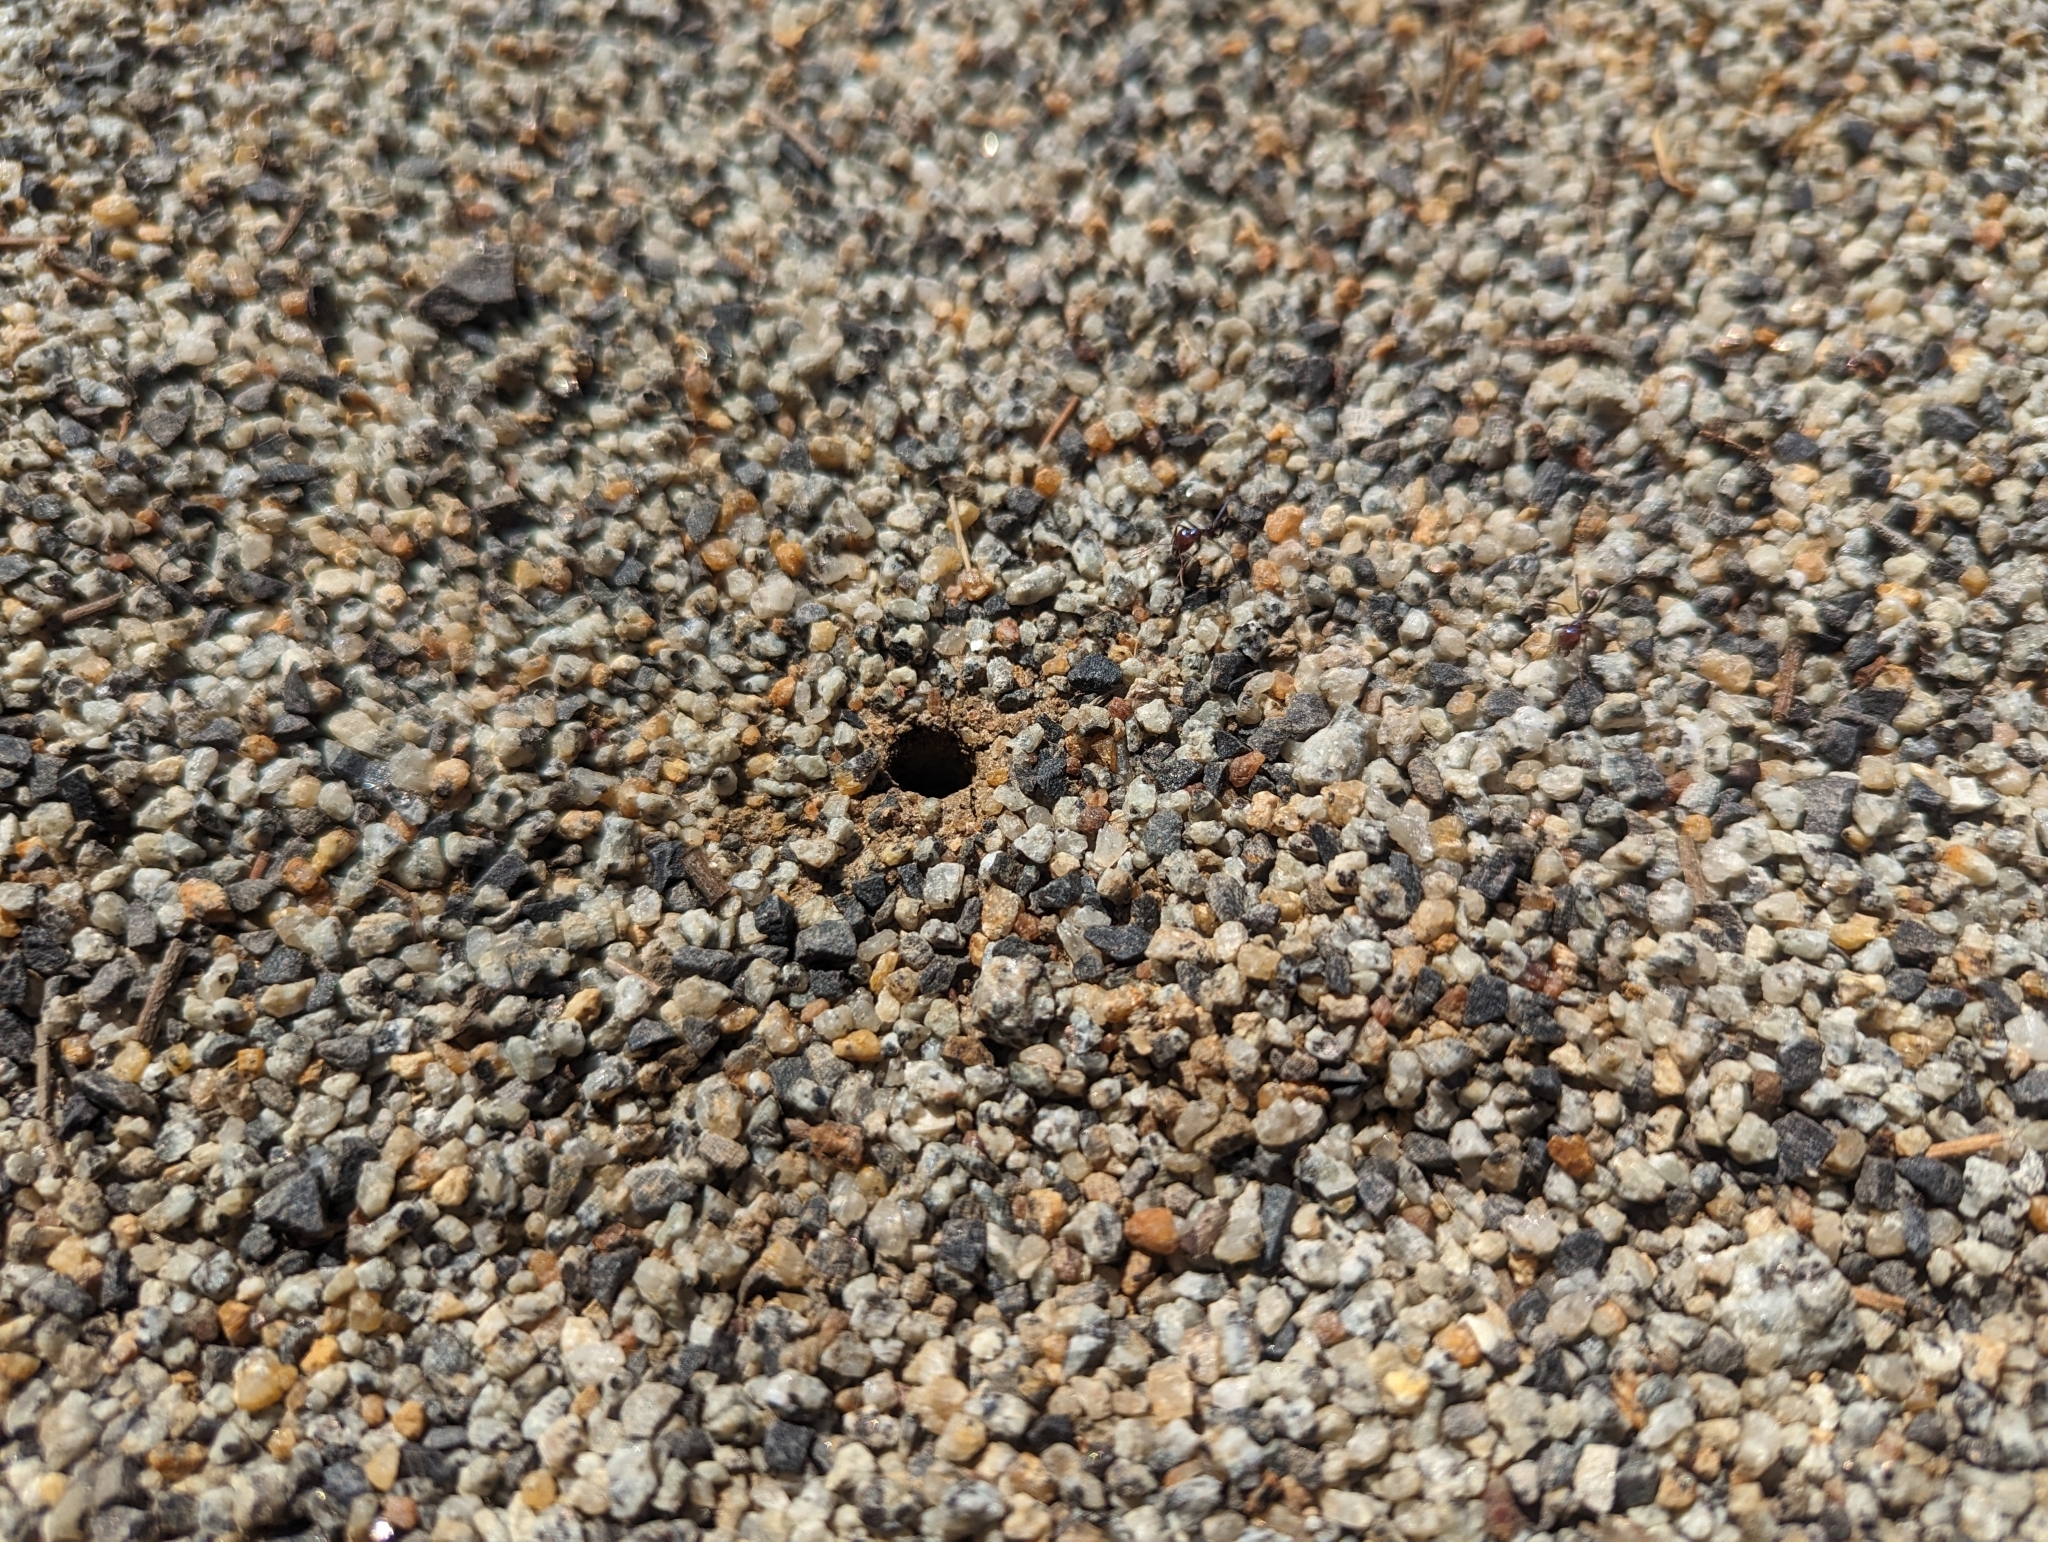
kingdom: Animalia
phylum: Arthropoda
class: Insecta
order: Hymenoptera
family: Formicidae
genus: Iridomyrmex
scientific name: Iridomyrmex purpureus
